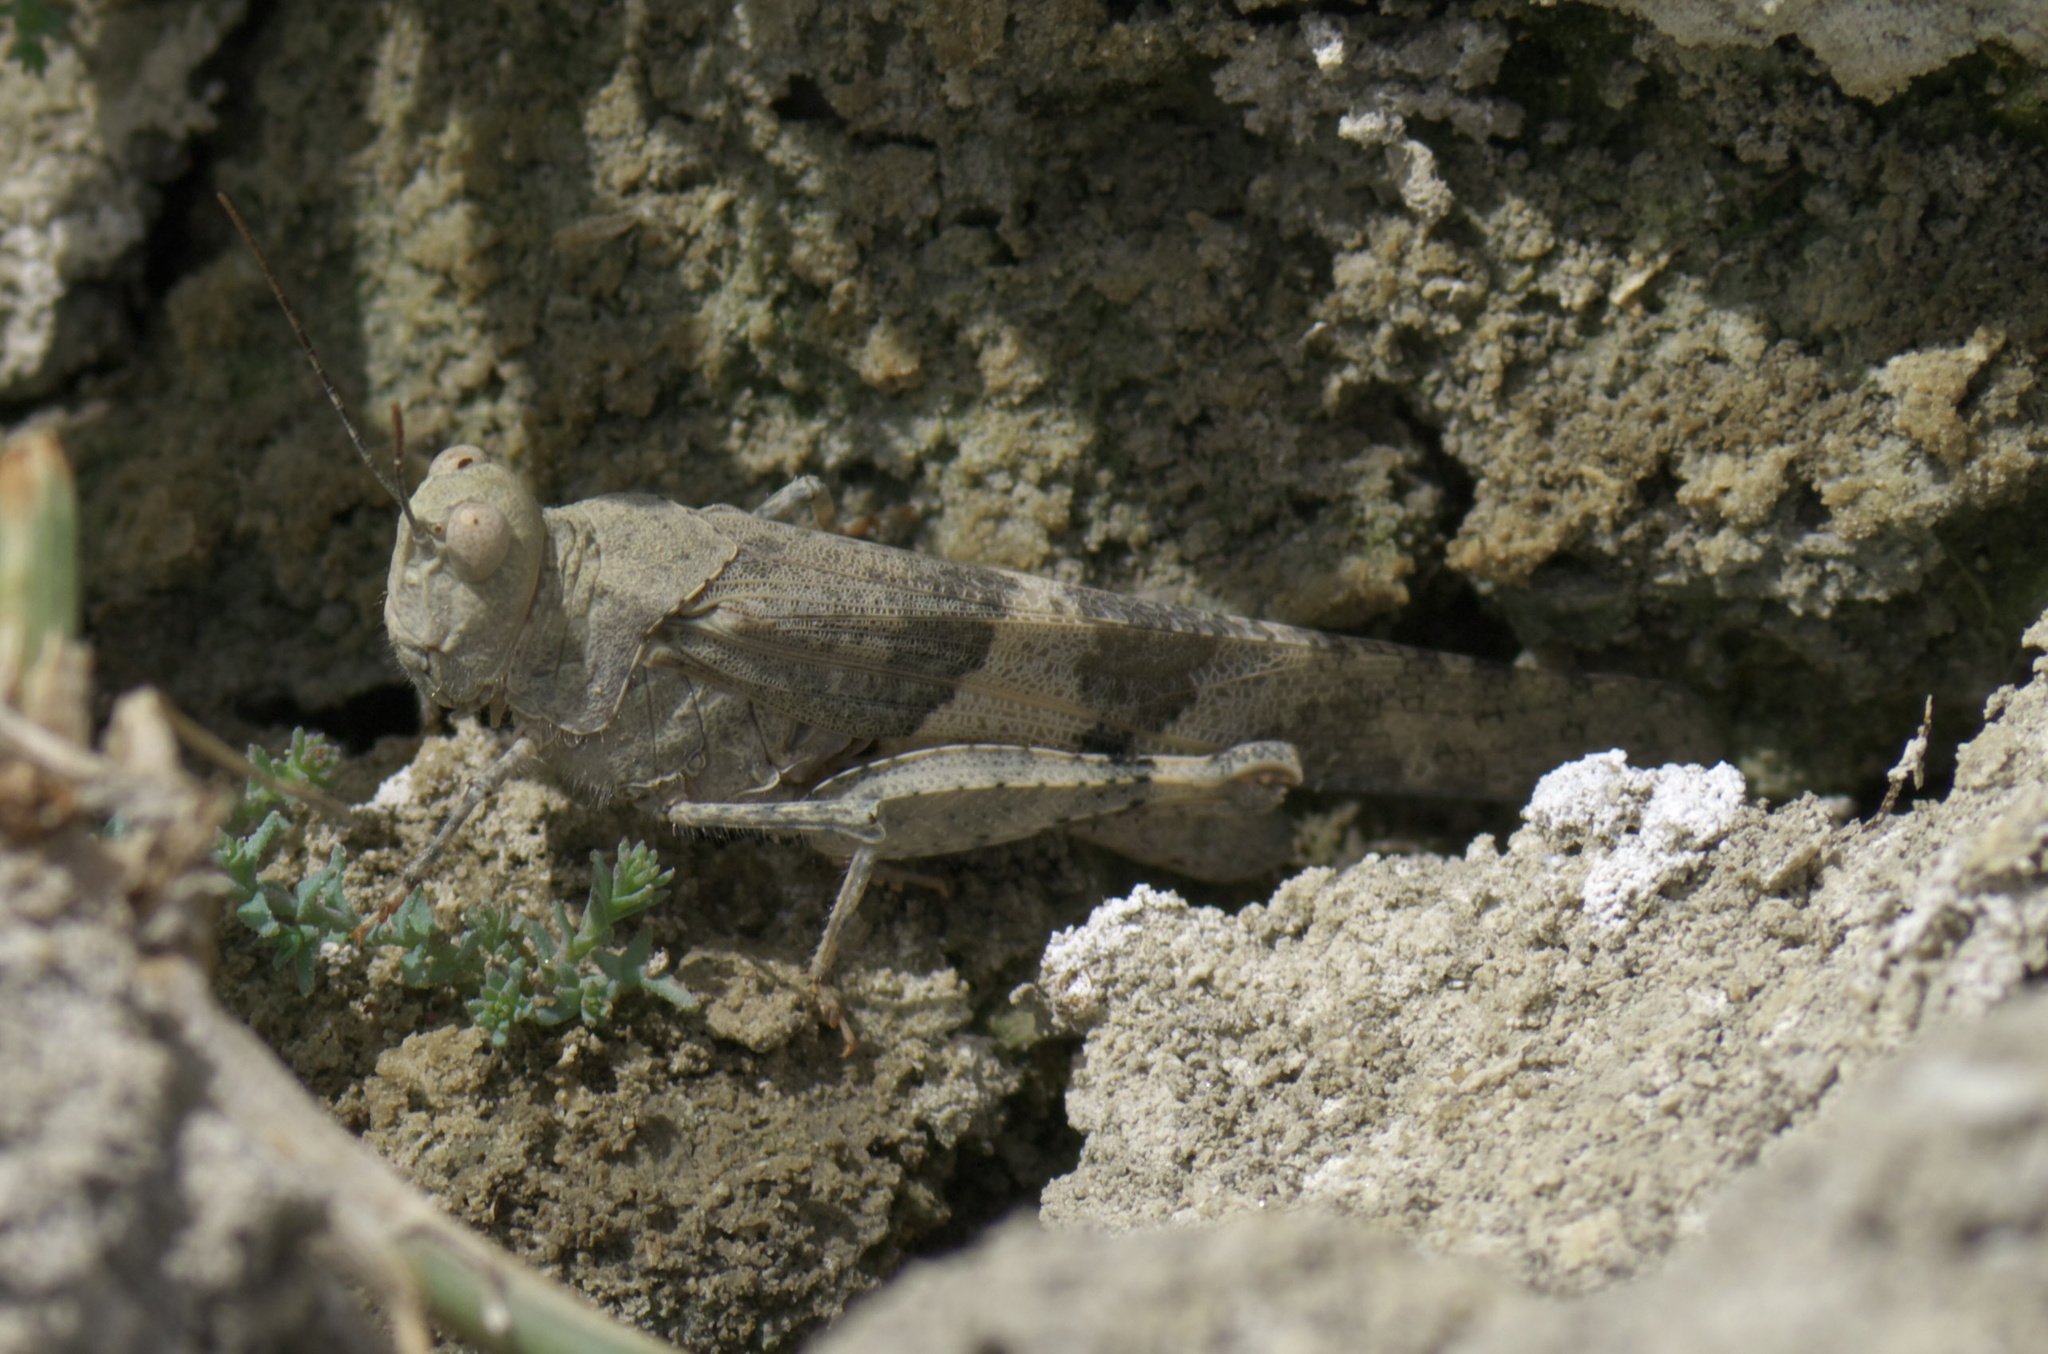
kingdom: Animalia
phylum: Arthropoda
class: Insecta
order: Orthoptera
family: Acrididae
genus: Trimerotropis
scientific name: Trimerotropis pallidipennis
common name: Pallid-winged grasshopper
